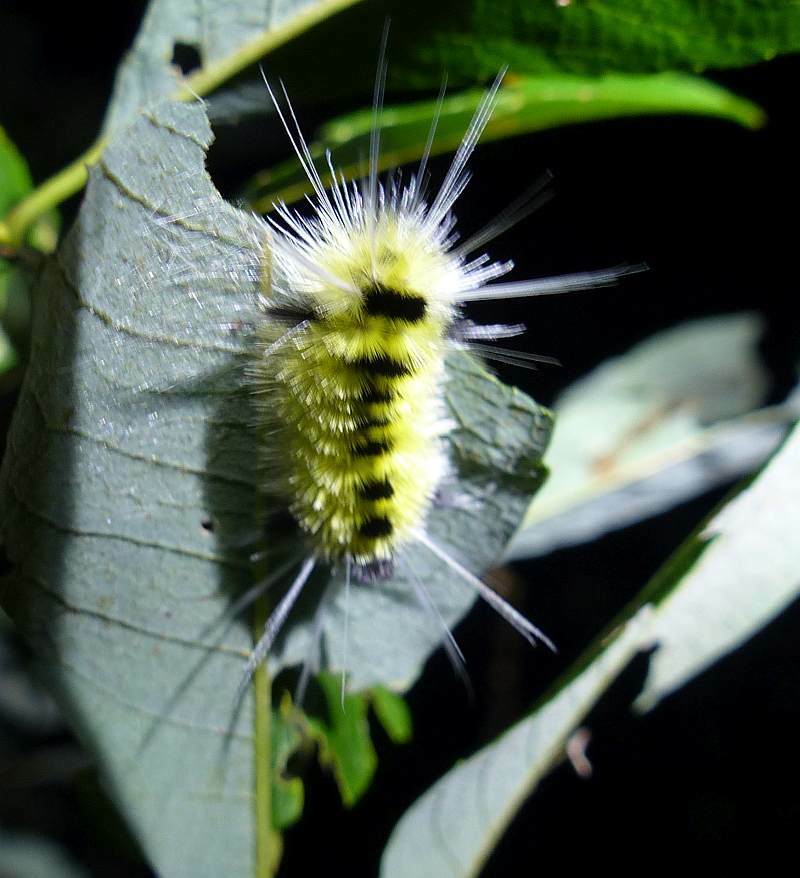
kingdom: Animalia
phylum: Arthropoda
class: Insecta
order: Lepidoptera
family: Erebidae
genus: Lophocampa
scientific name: Lophocampa maculata
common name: Spotted tussock moth
